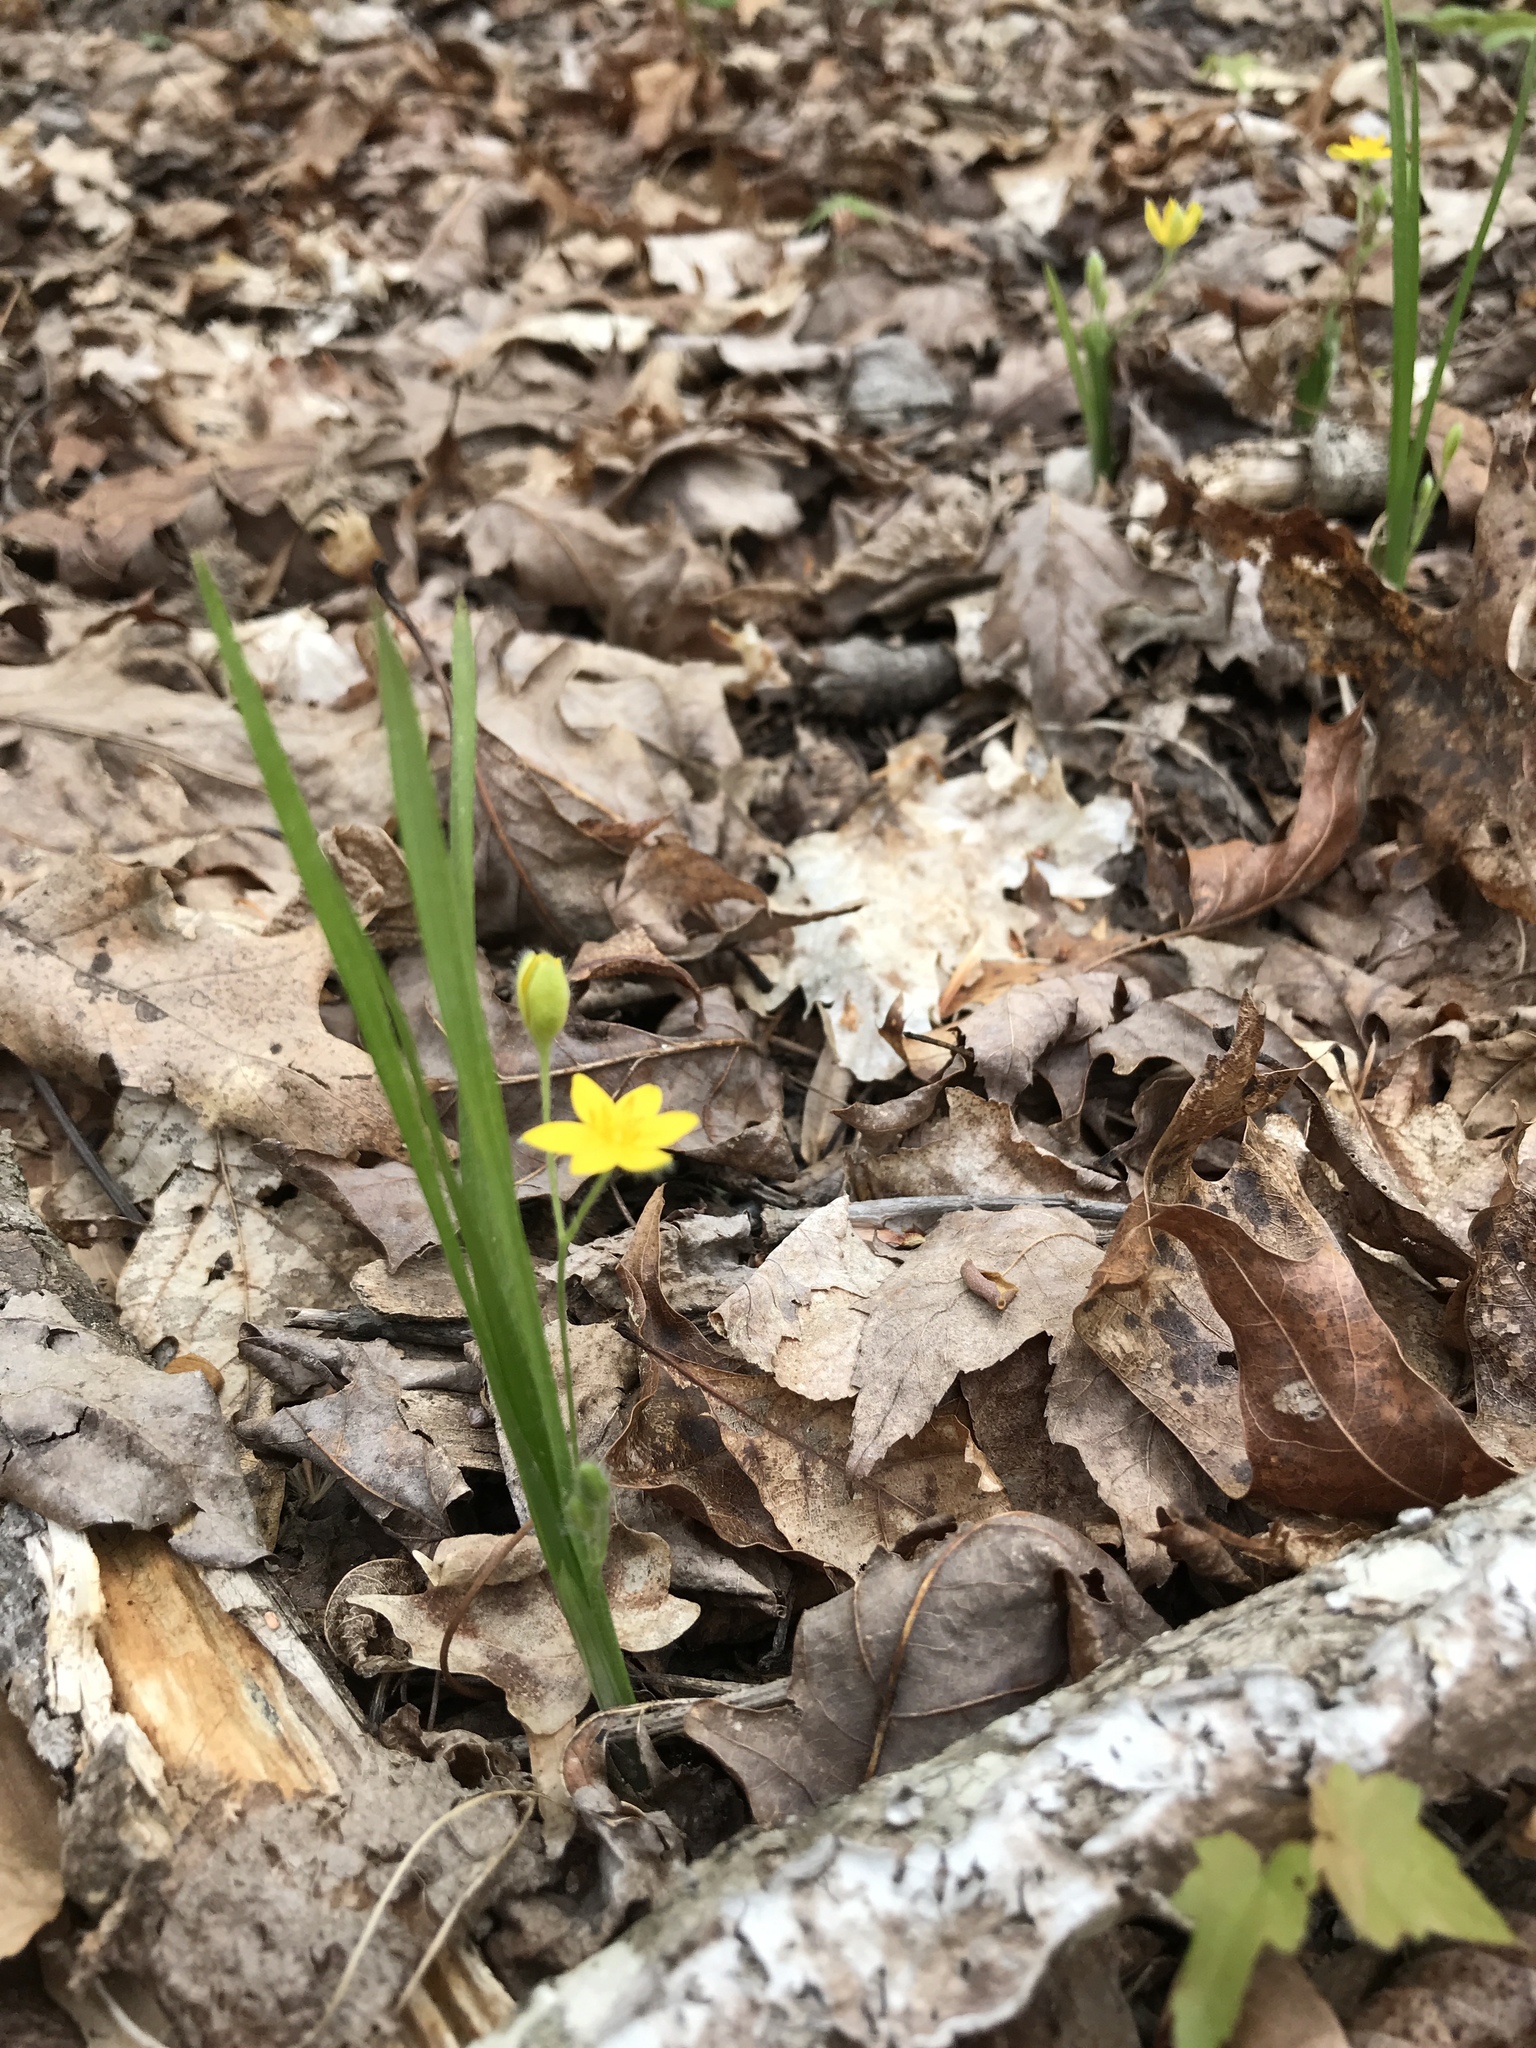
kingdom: Plantae
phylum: Tracheophyta
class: Liliopsida
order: Asparagales
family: Hypoxidaceae
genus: Hypoxis
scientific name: Hypoxis hirsuta
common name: Common goldstar
